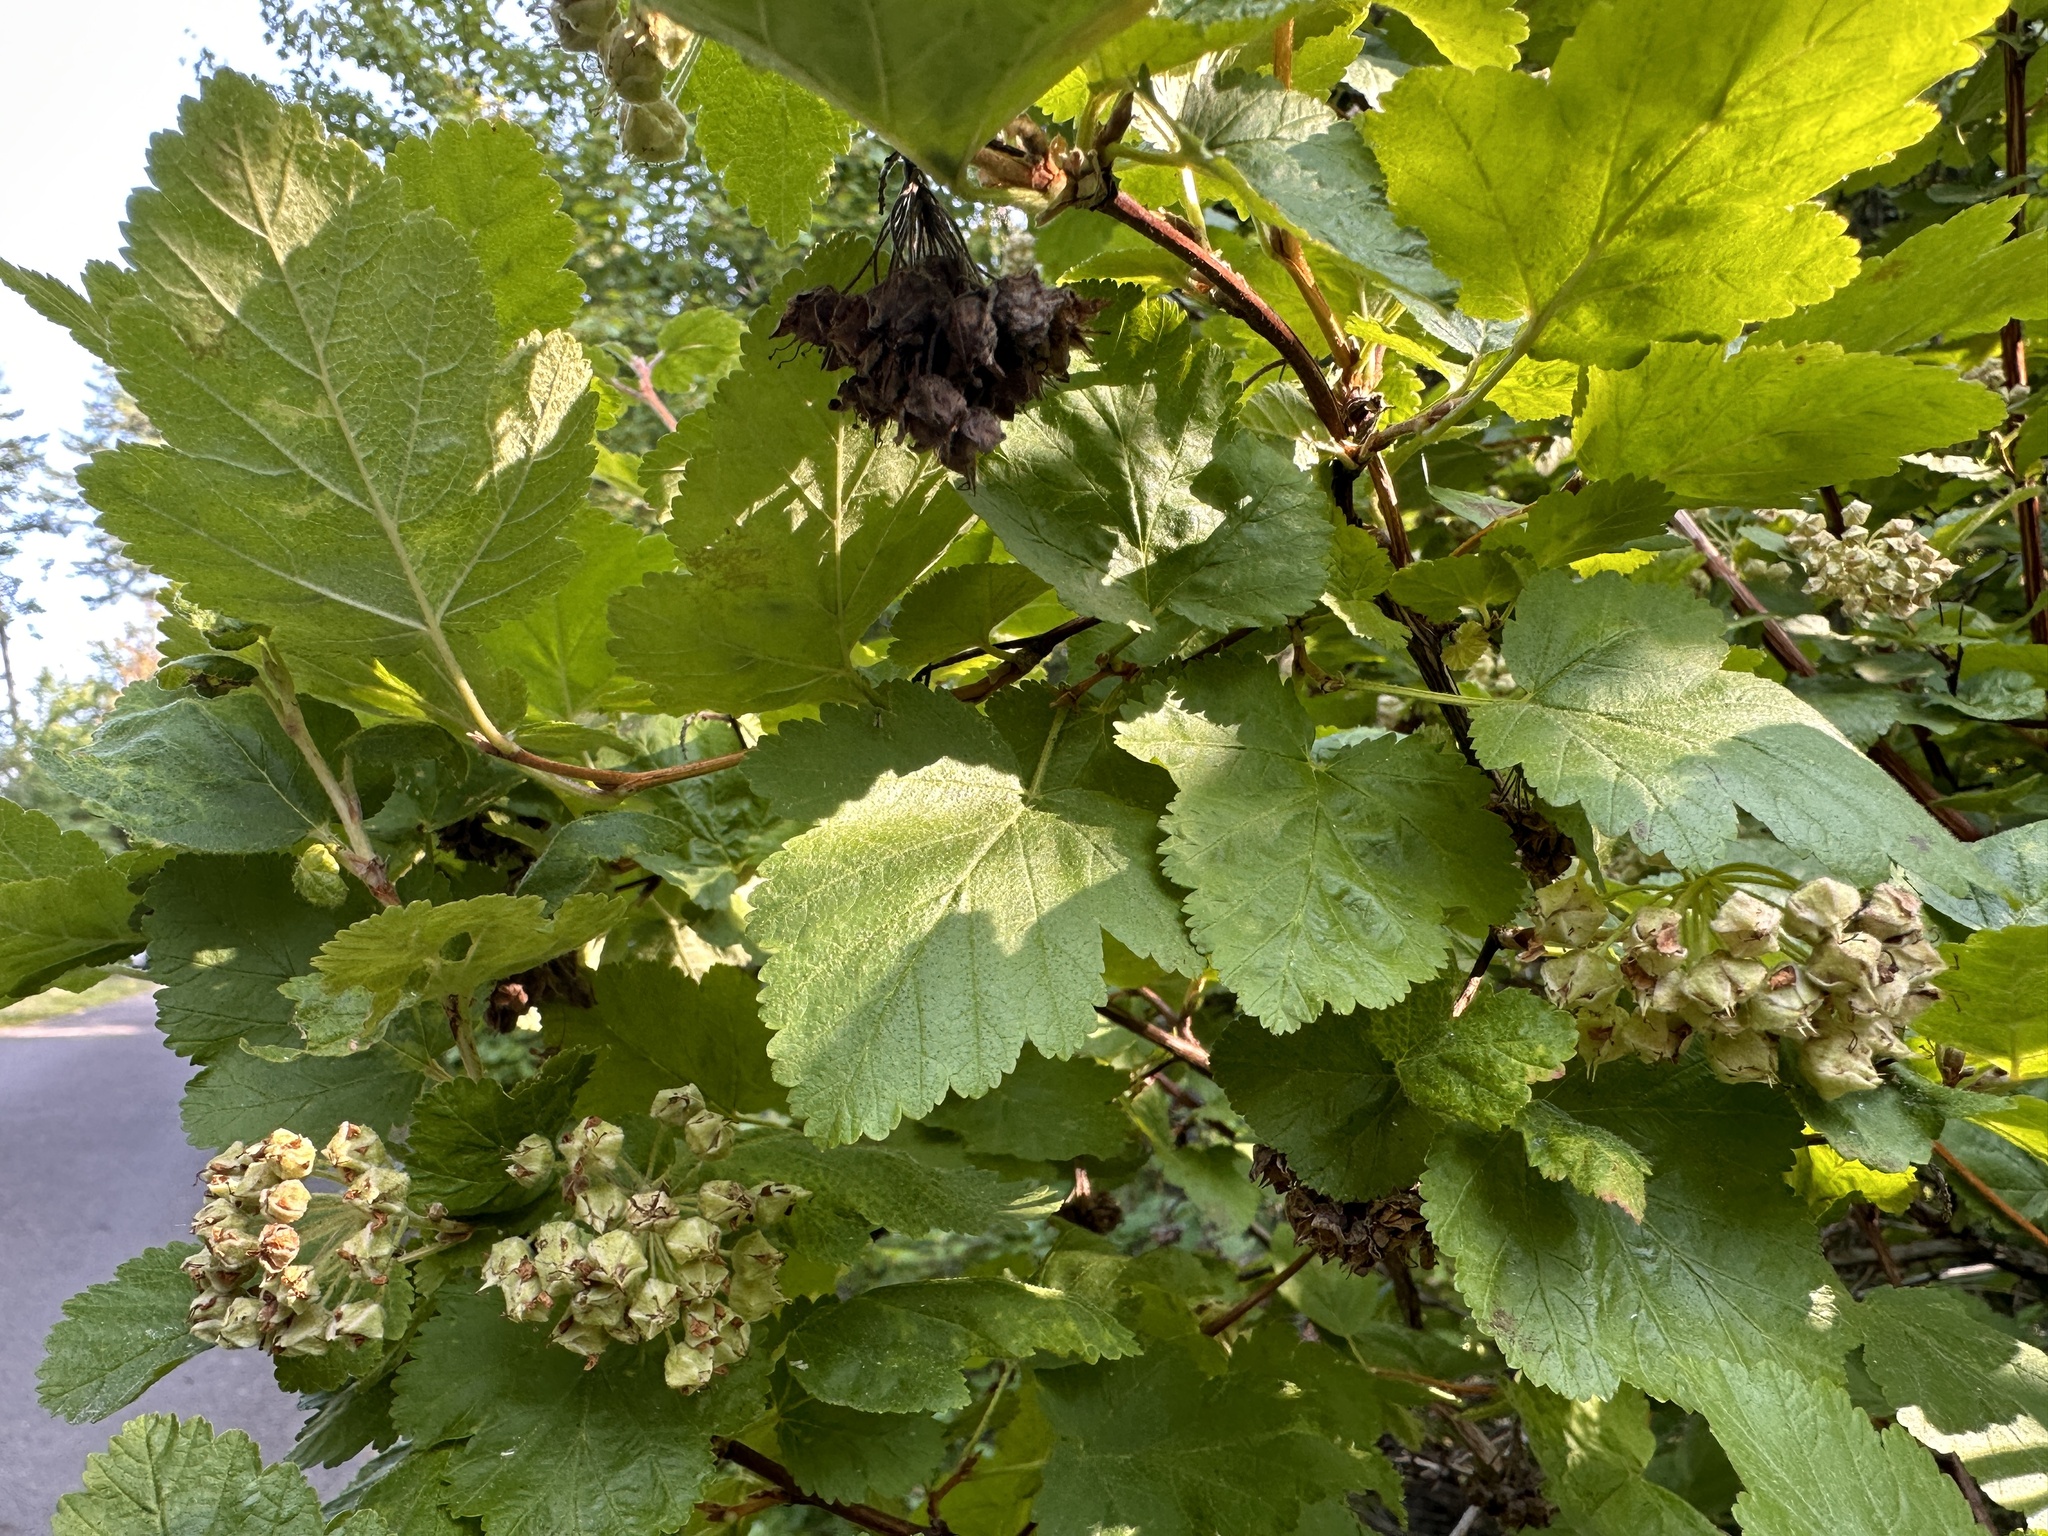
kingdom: Plantae
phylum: Tracheophyta
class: Magnoliopsida
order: Rosales
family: Rosaceae
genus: Physocarpus
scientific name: Physocarpus malvaceus
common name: Mallow ninebark
